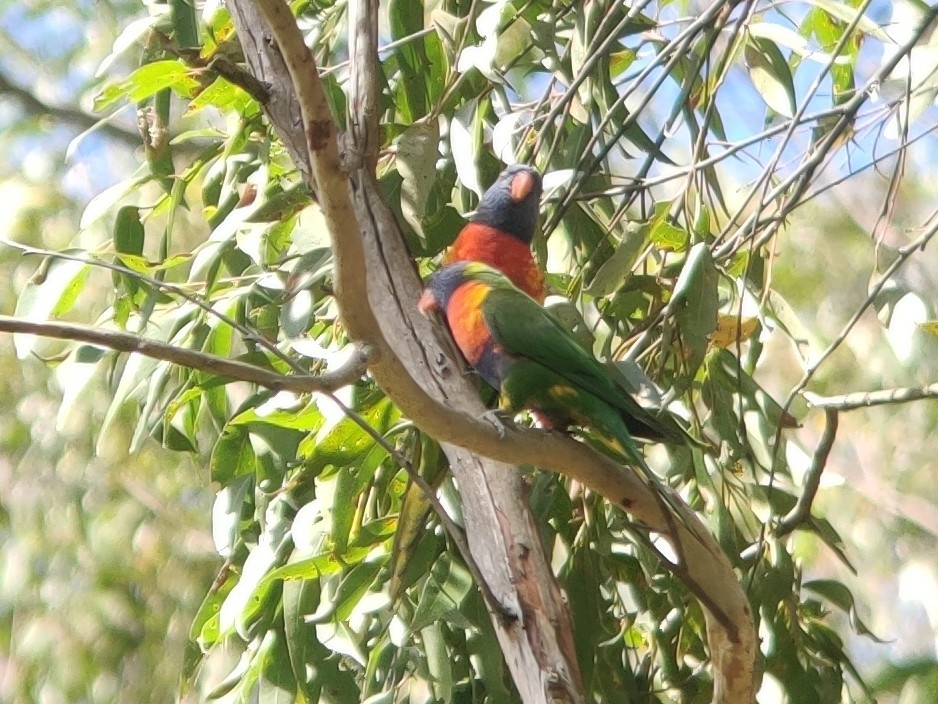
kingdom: Animalia
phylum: Chordata
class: Aves
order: Psittaciformes
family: Psittacidae
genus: Trichoglossus
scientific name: Trichoglossus haematodus
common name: Coconut lorikeet
